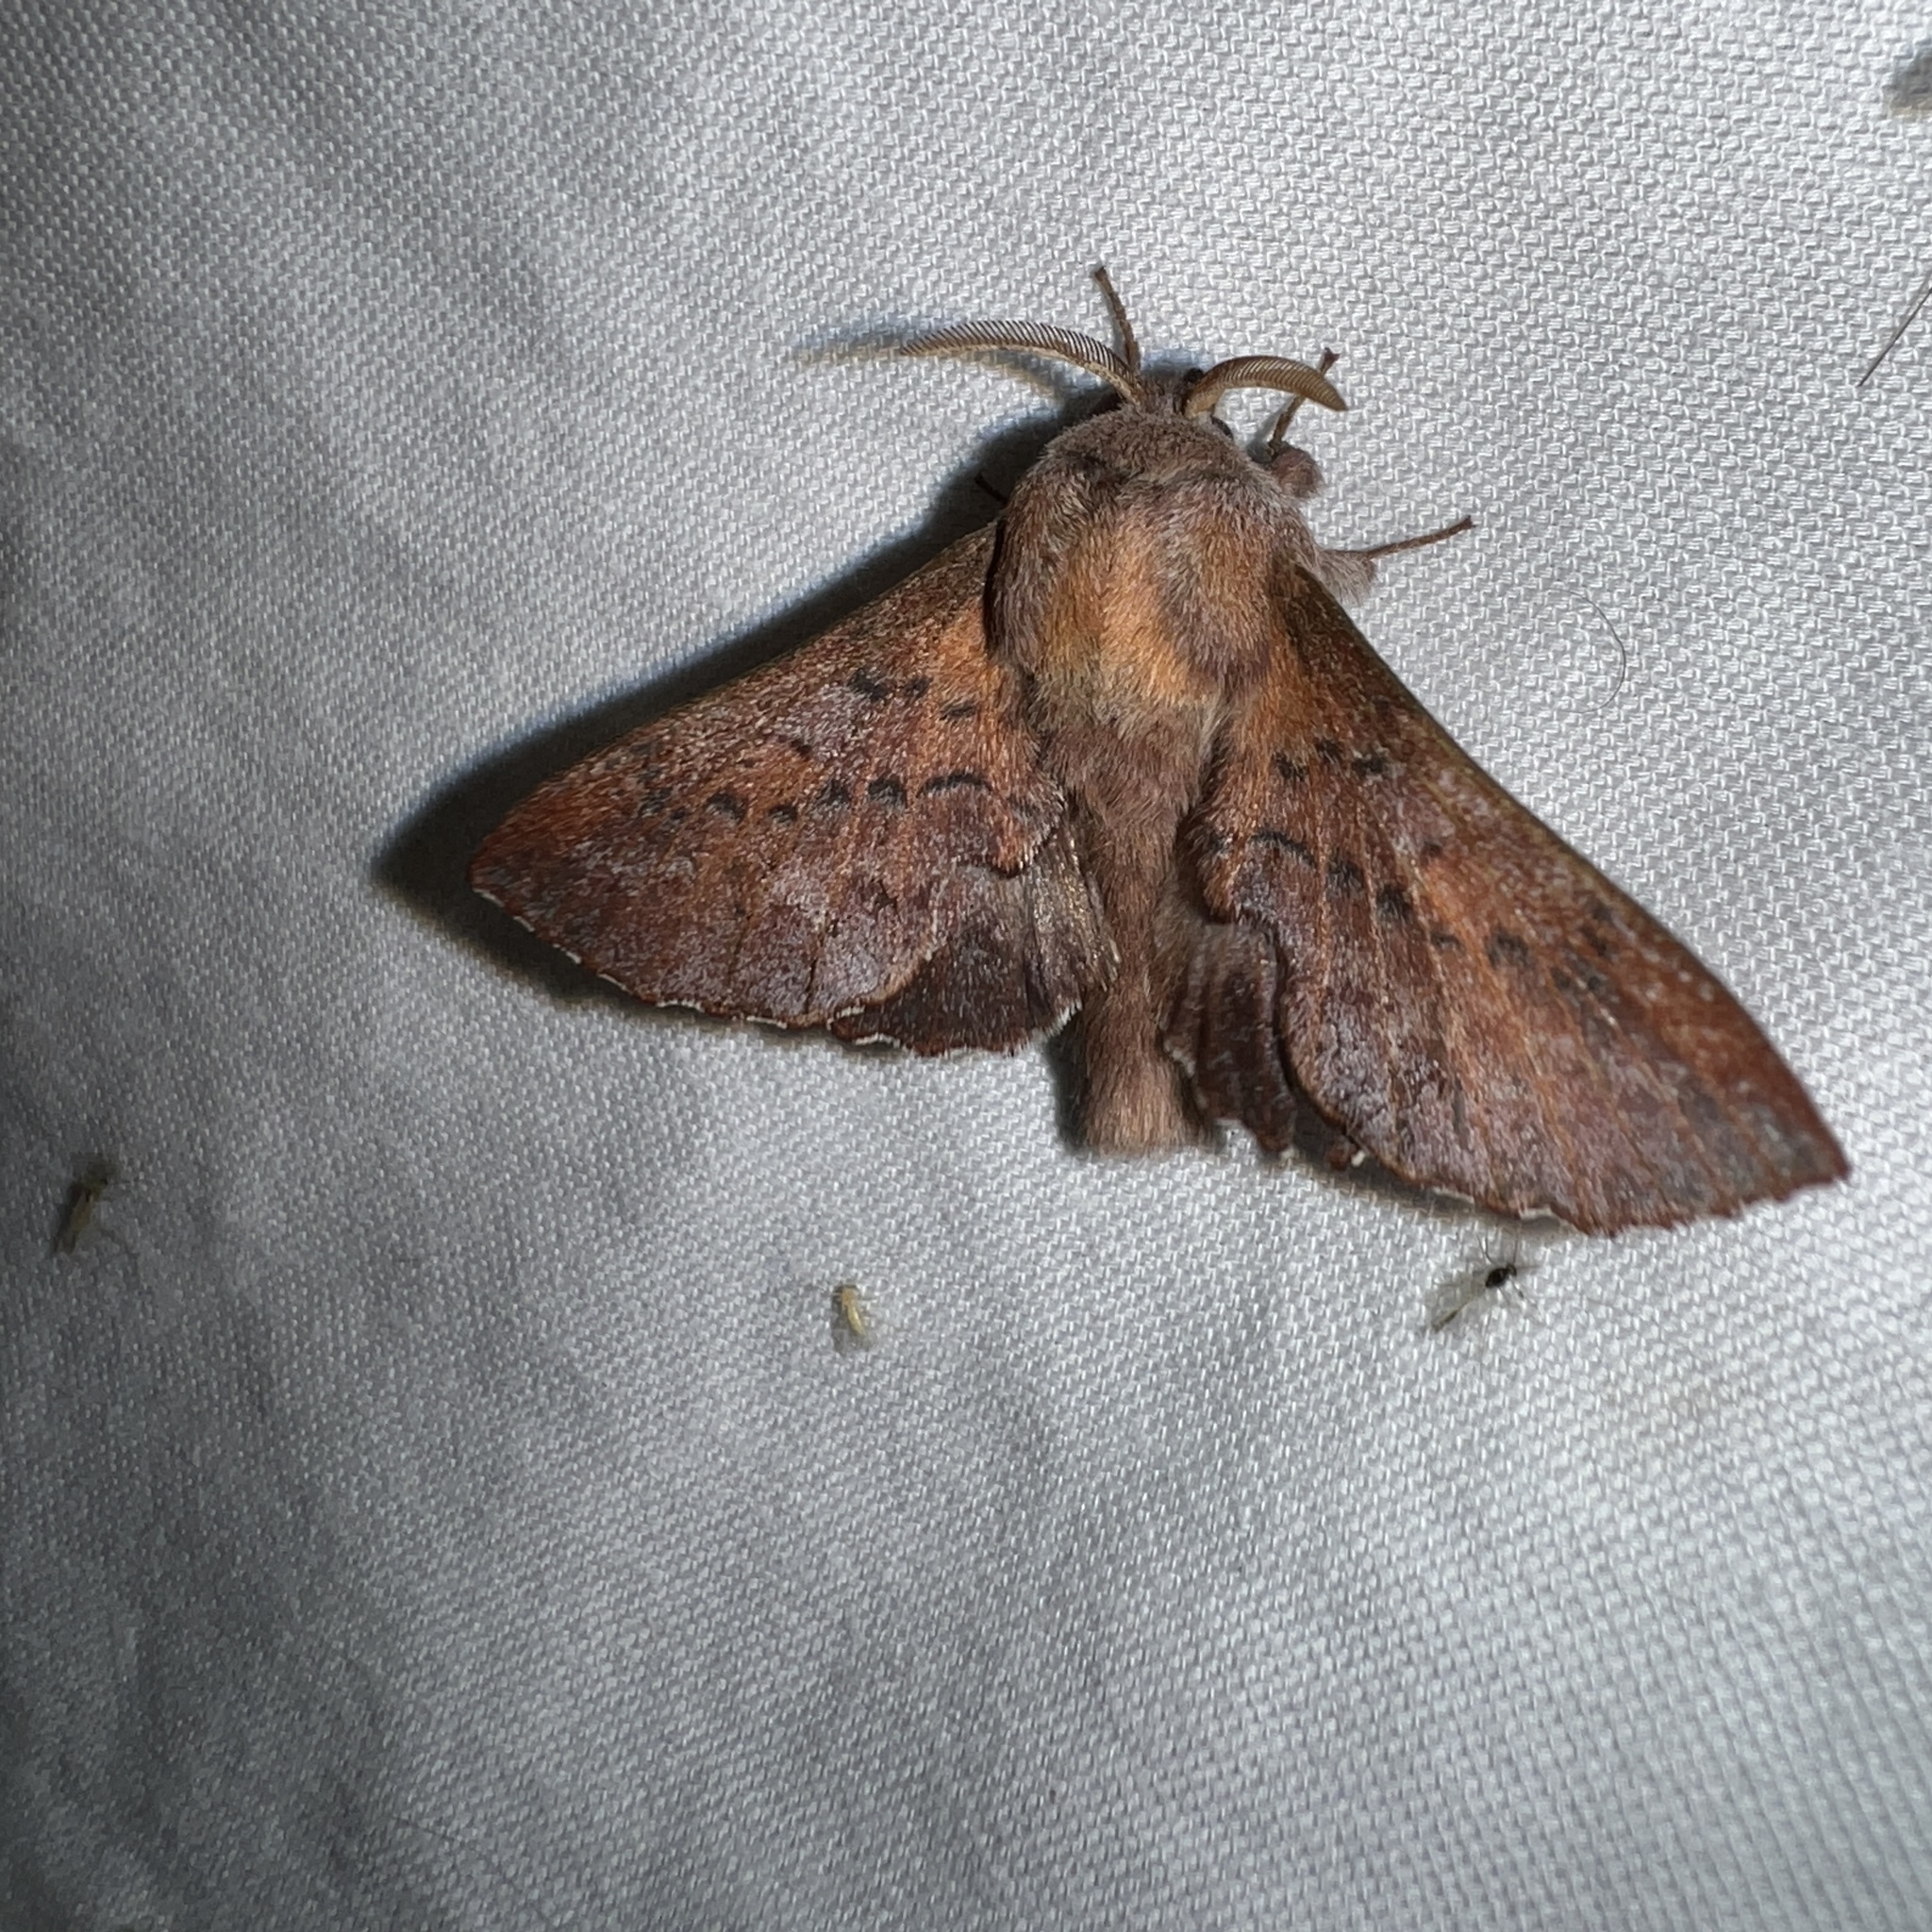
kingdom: Animalia
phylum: Arthropoda
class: Insecta
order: Lepidoptera
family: Lasiocampidae
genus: Phyllodesma
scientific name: Phyllodesma americana
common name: American lappet moth
